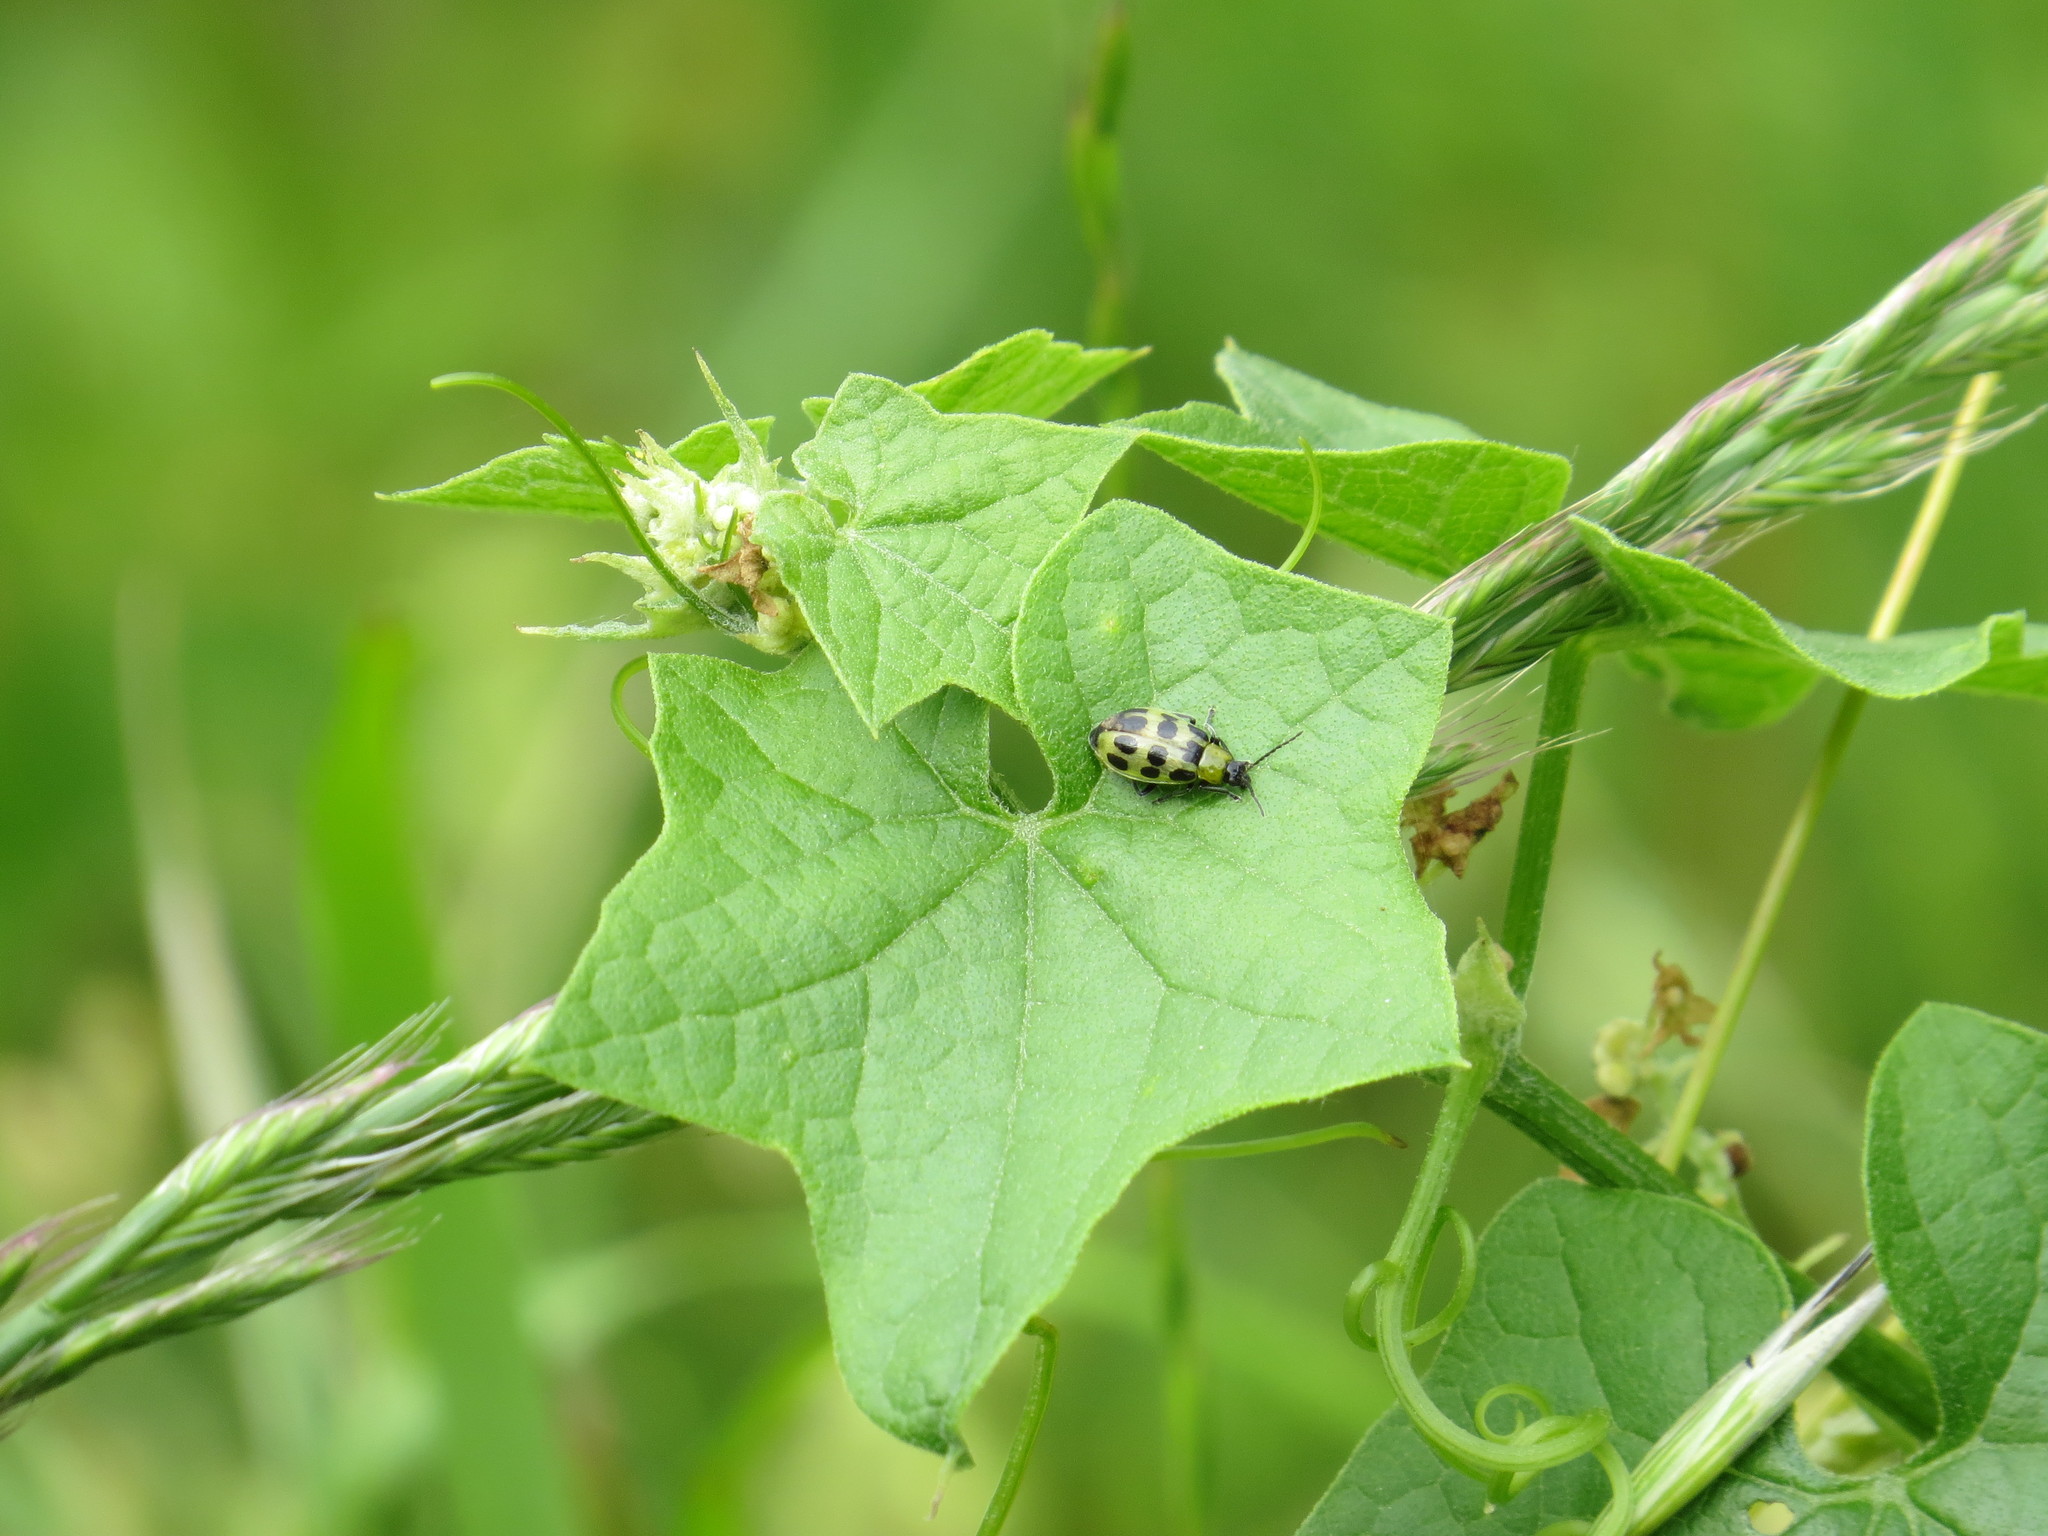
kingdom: Animalia
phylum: Arthropoda
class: Insecta
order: Coleoptera
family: Chrysomelidae
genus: Diabrotica
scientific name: Diabrotica undecimpunctata
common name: Spotted cucumber beetle
